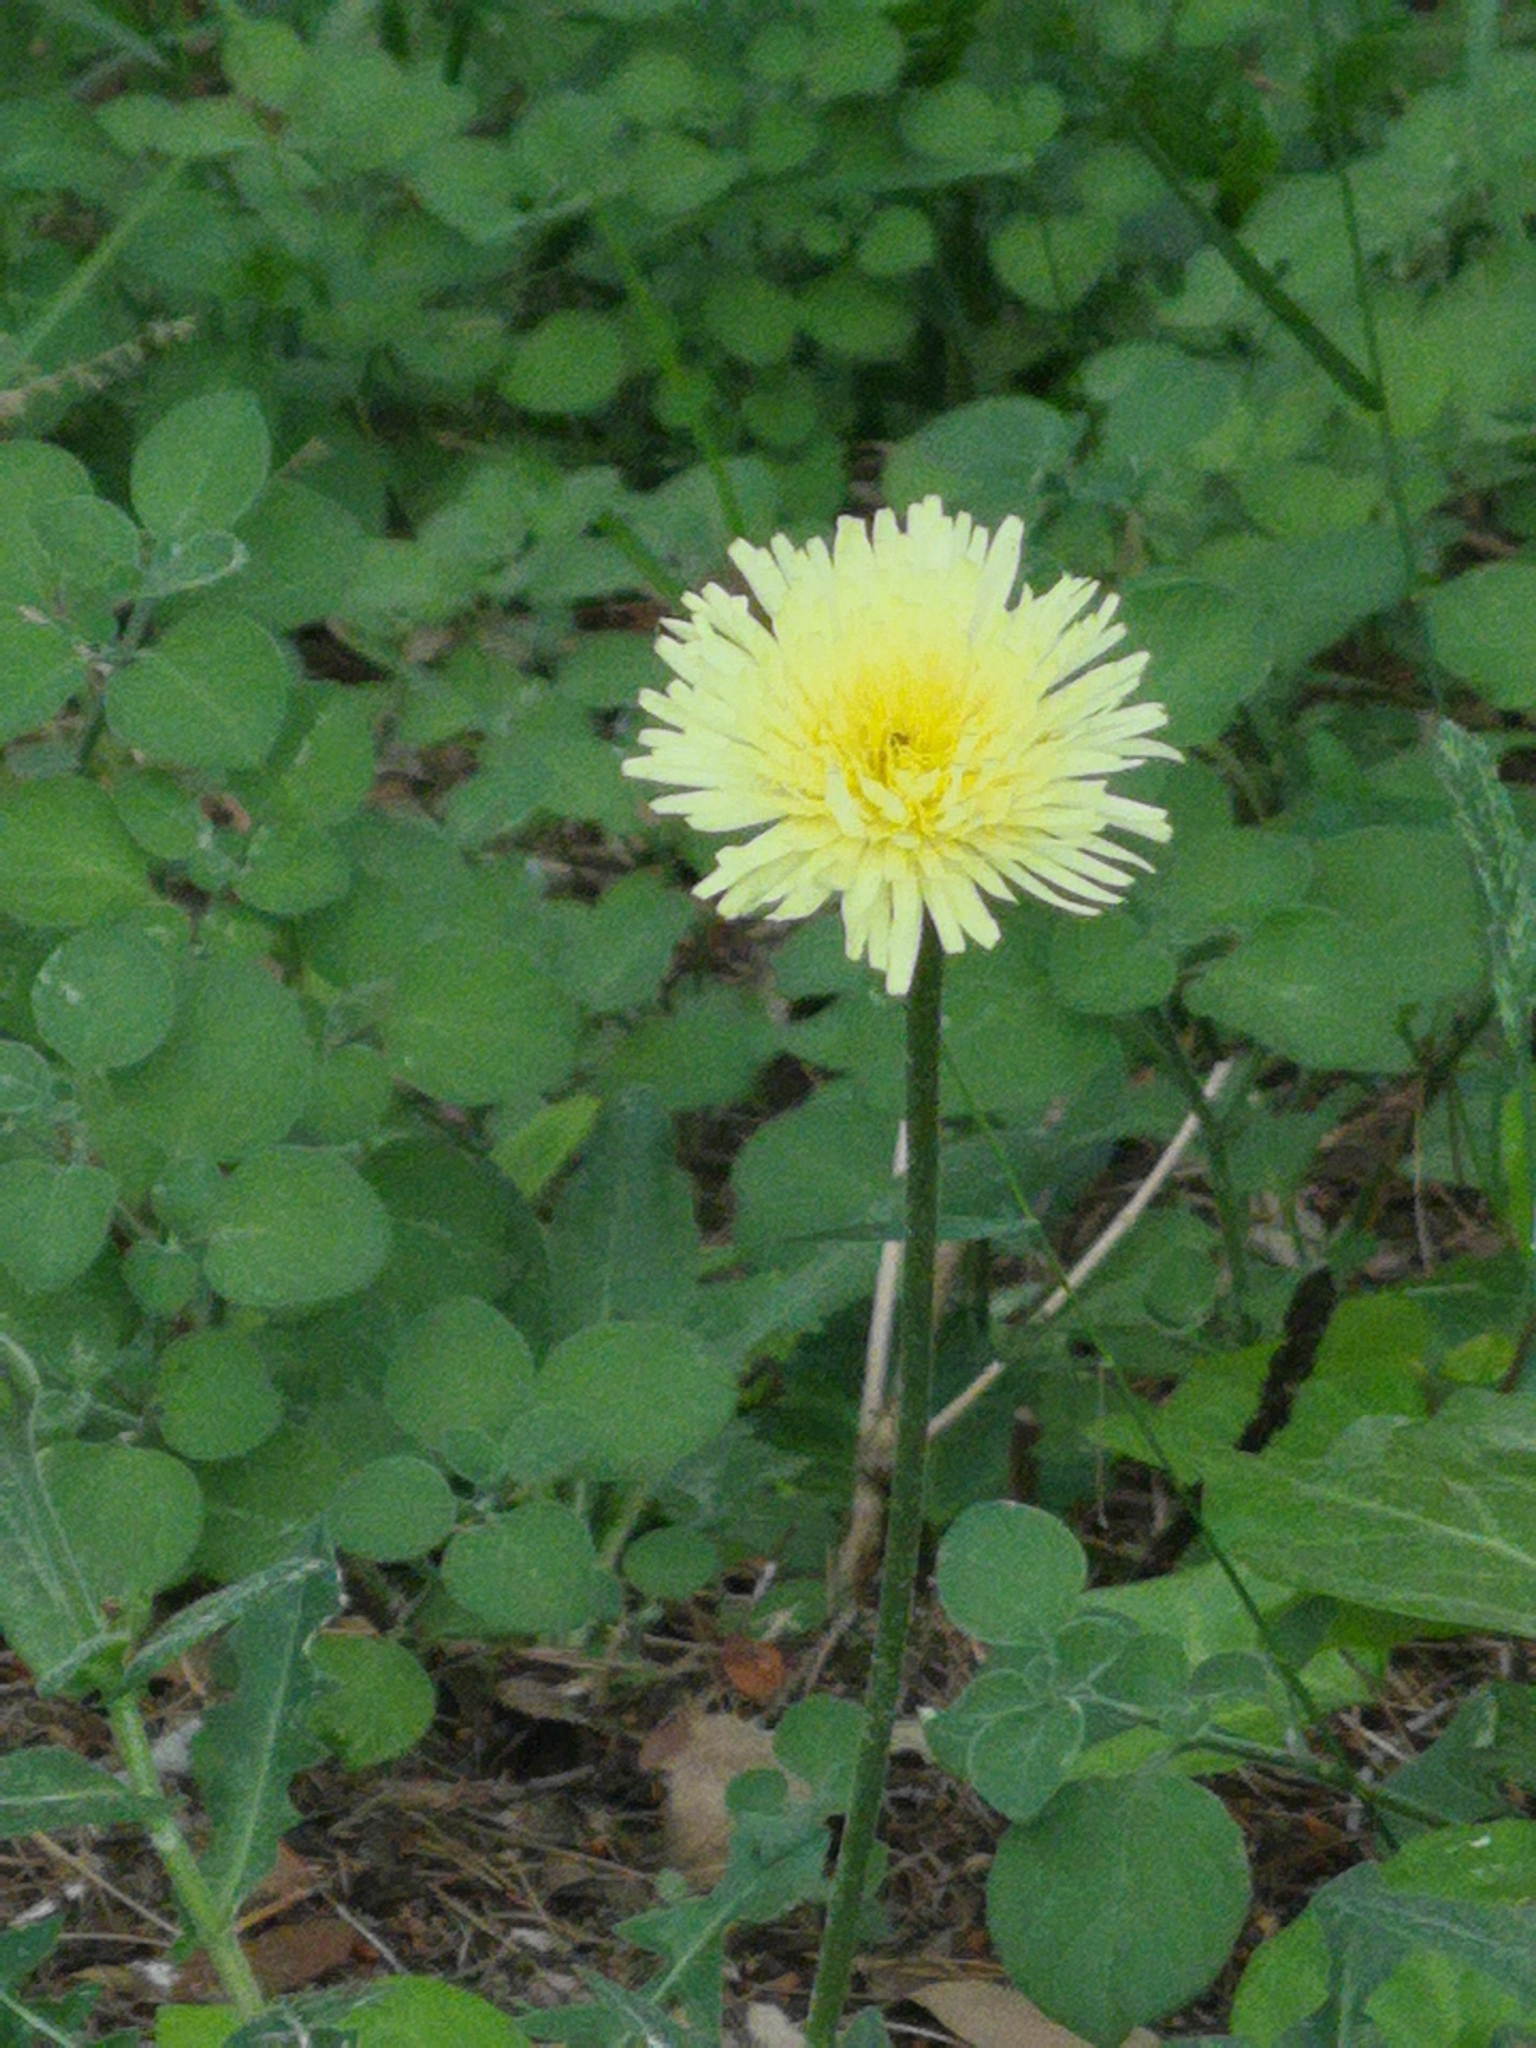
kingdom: Plantae
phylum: Tracheophyta
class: Magnoliopsida
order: Asterales
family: Asteraceae
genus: Urospermum
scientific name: Urospermum dalechampii
